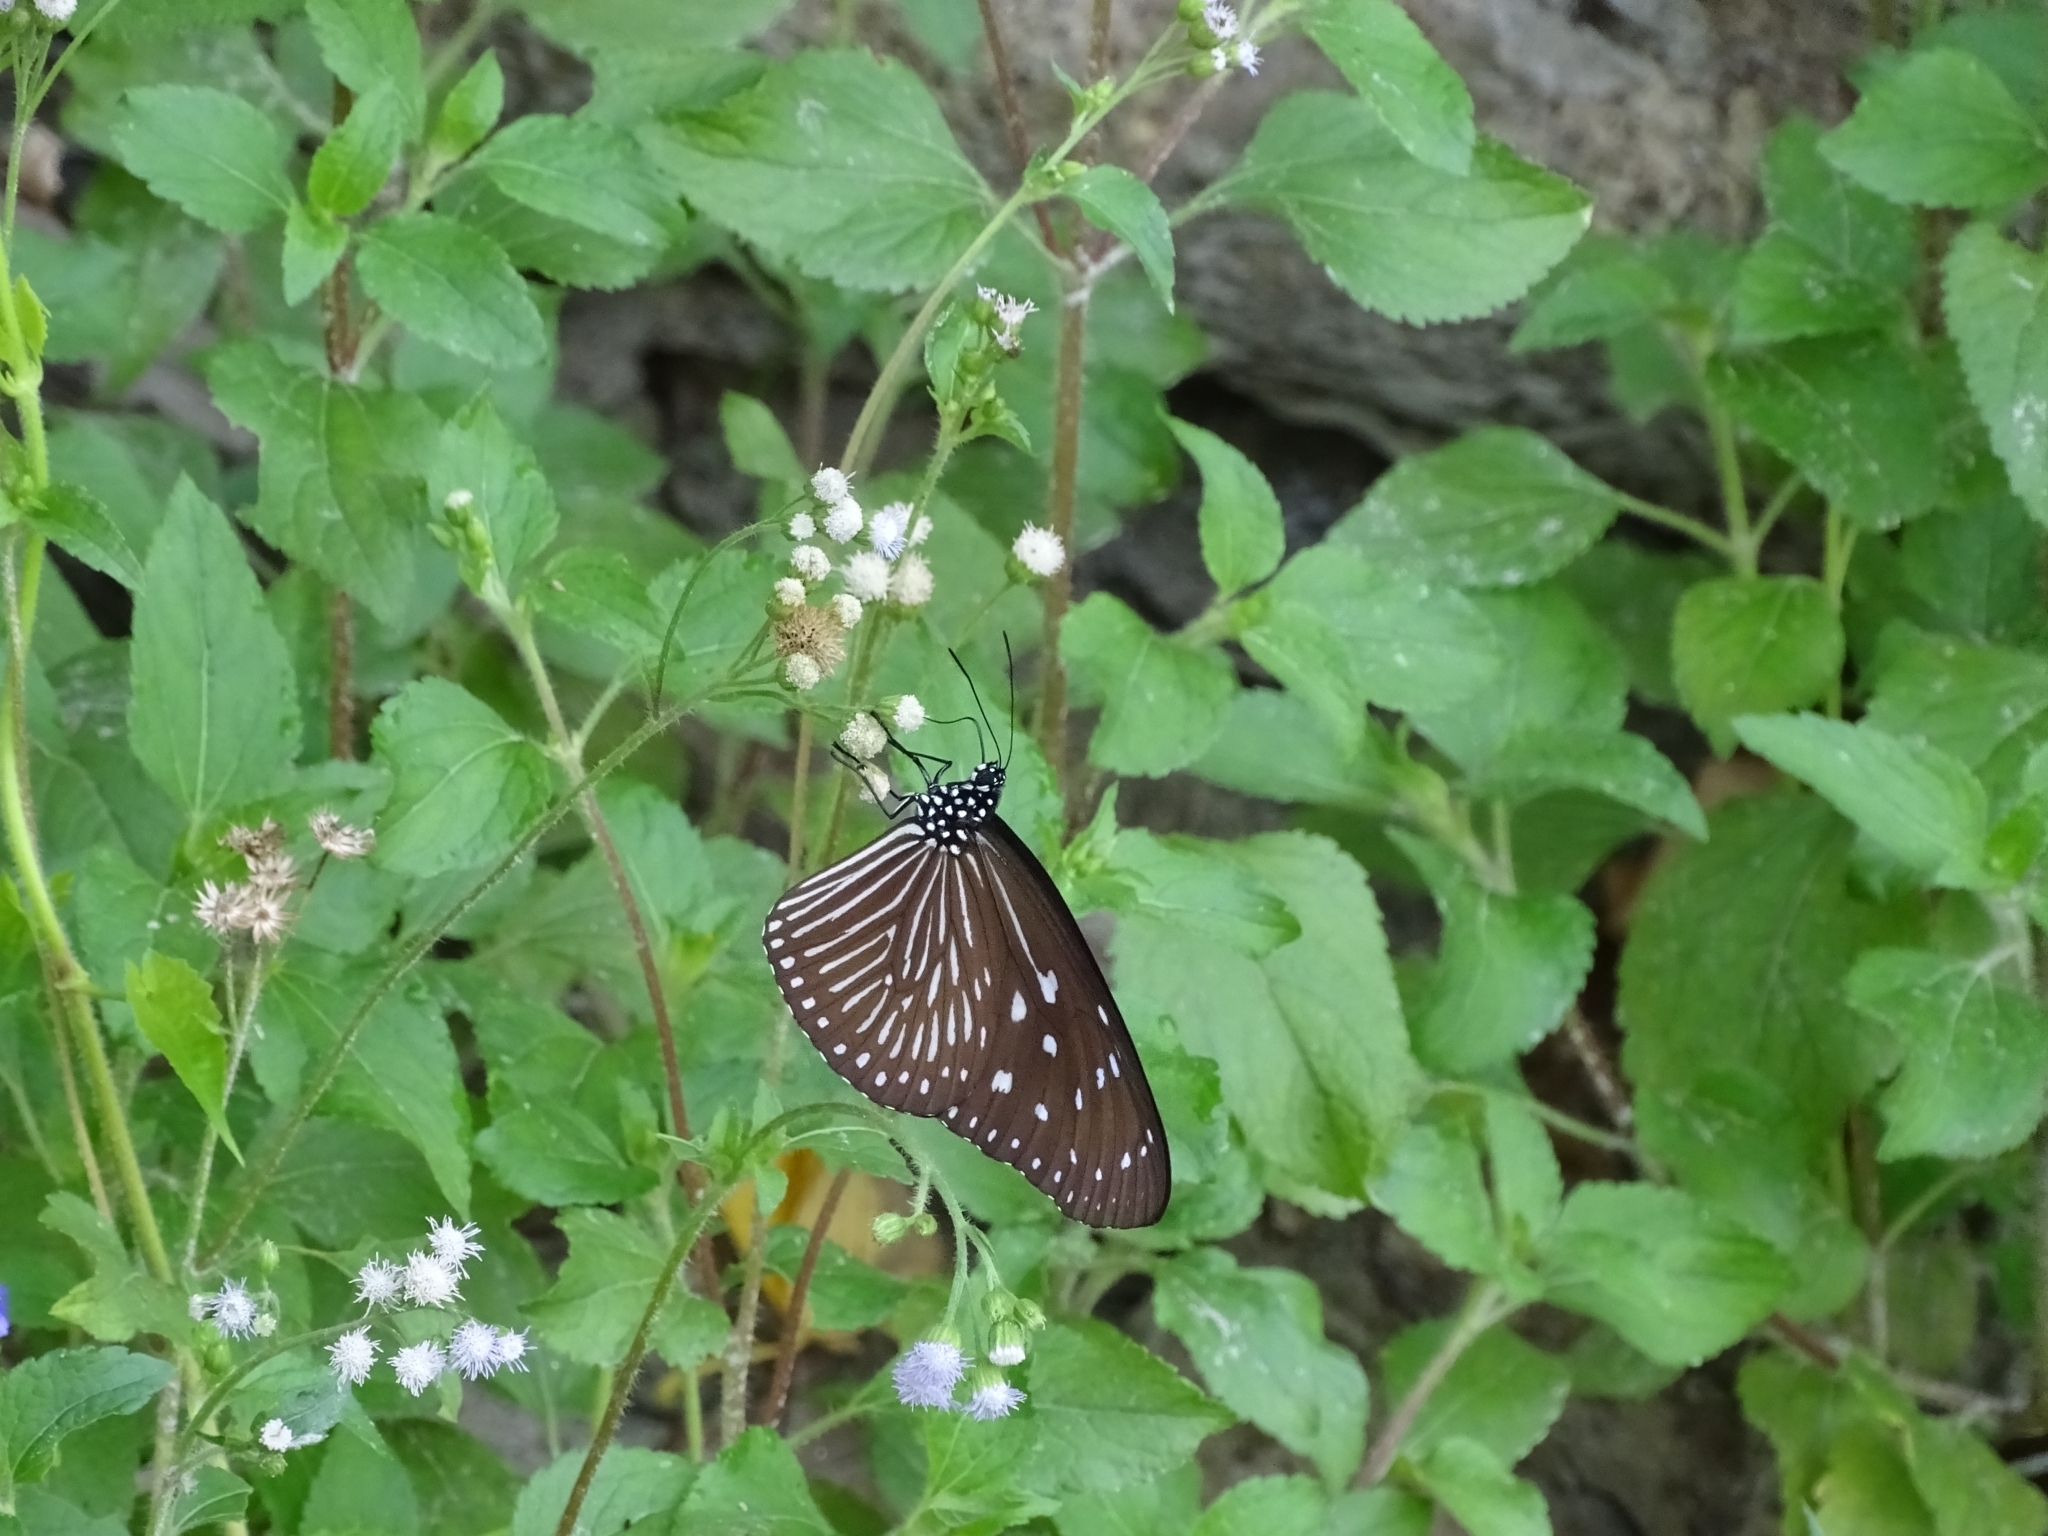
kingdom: Animalia
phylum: Arthropoda
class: Insecta
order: Lepidoptera
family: Nymphalidae
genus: Euploea
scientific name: Euploea mulciber
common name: Striped blue crow butterfly
